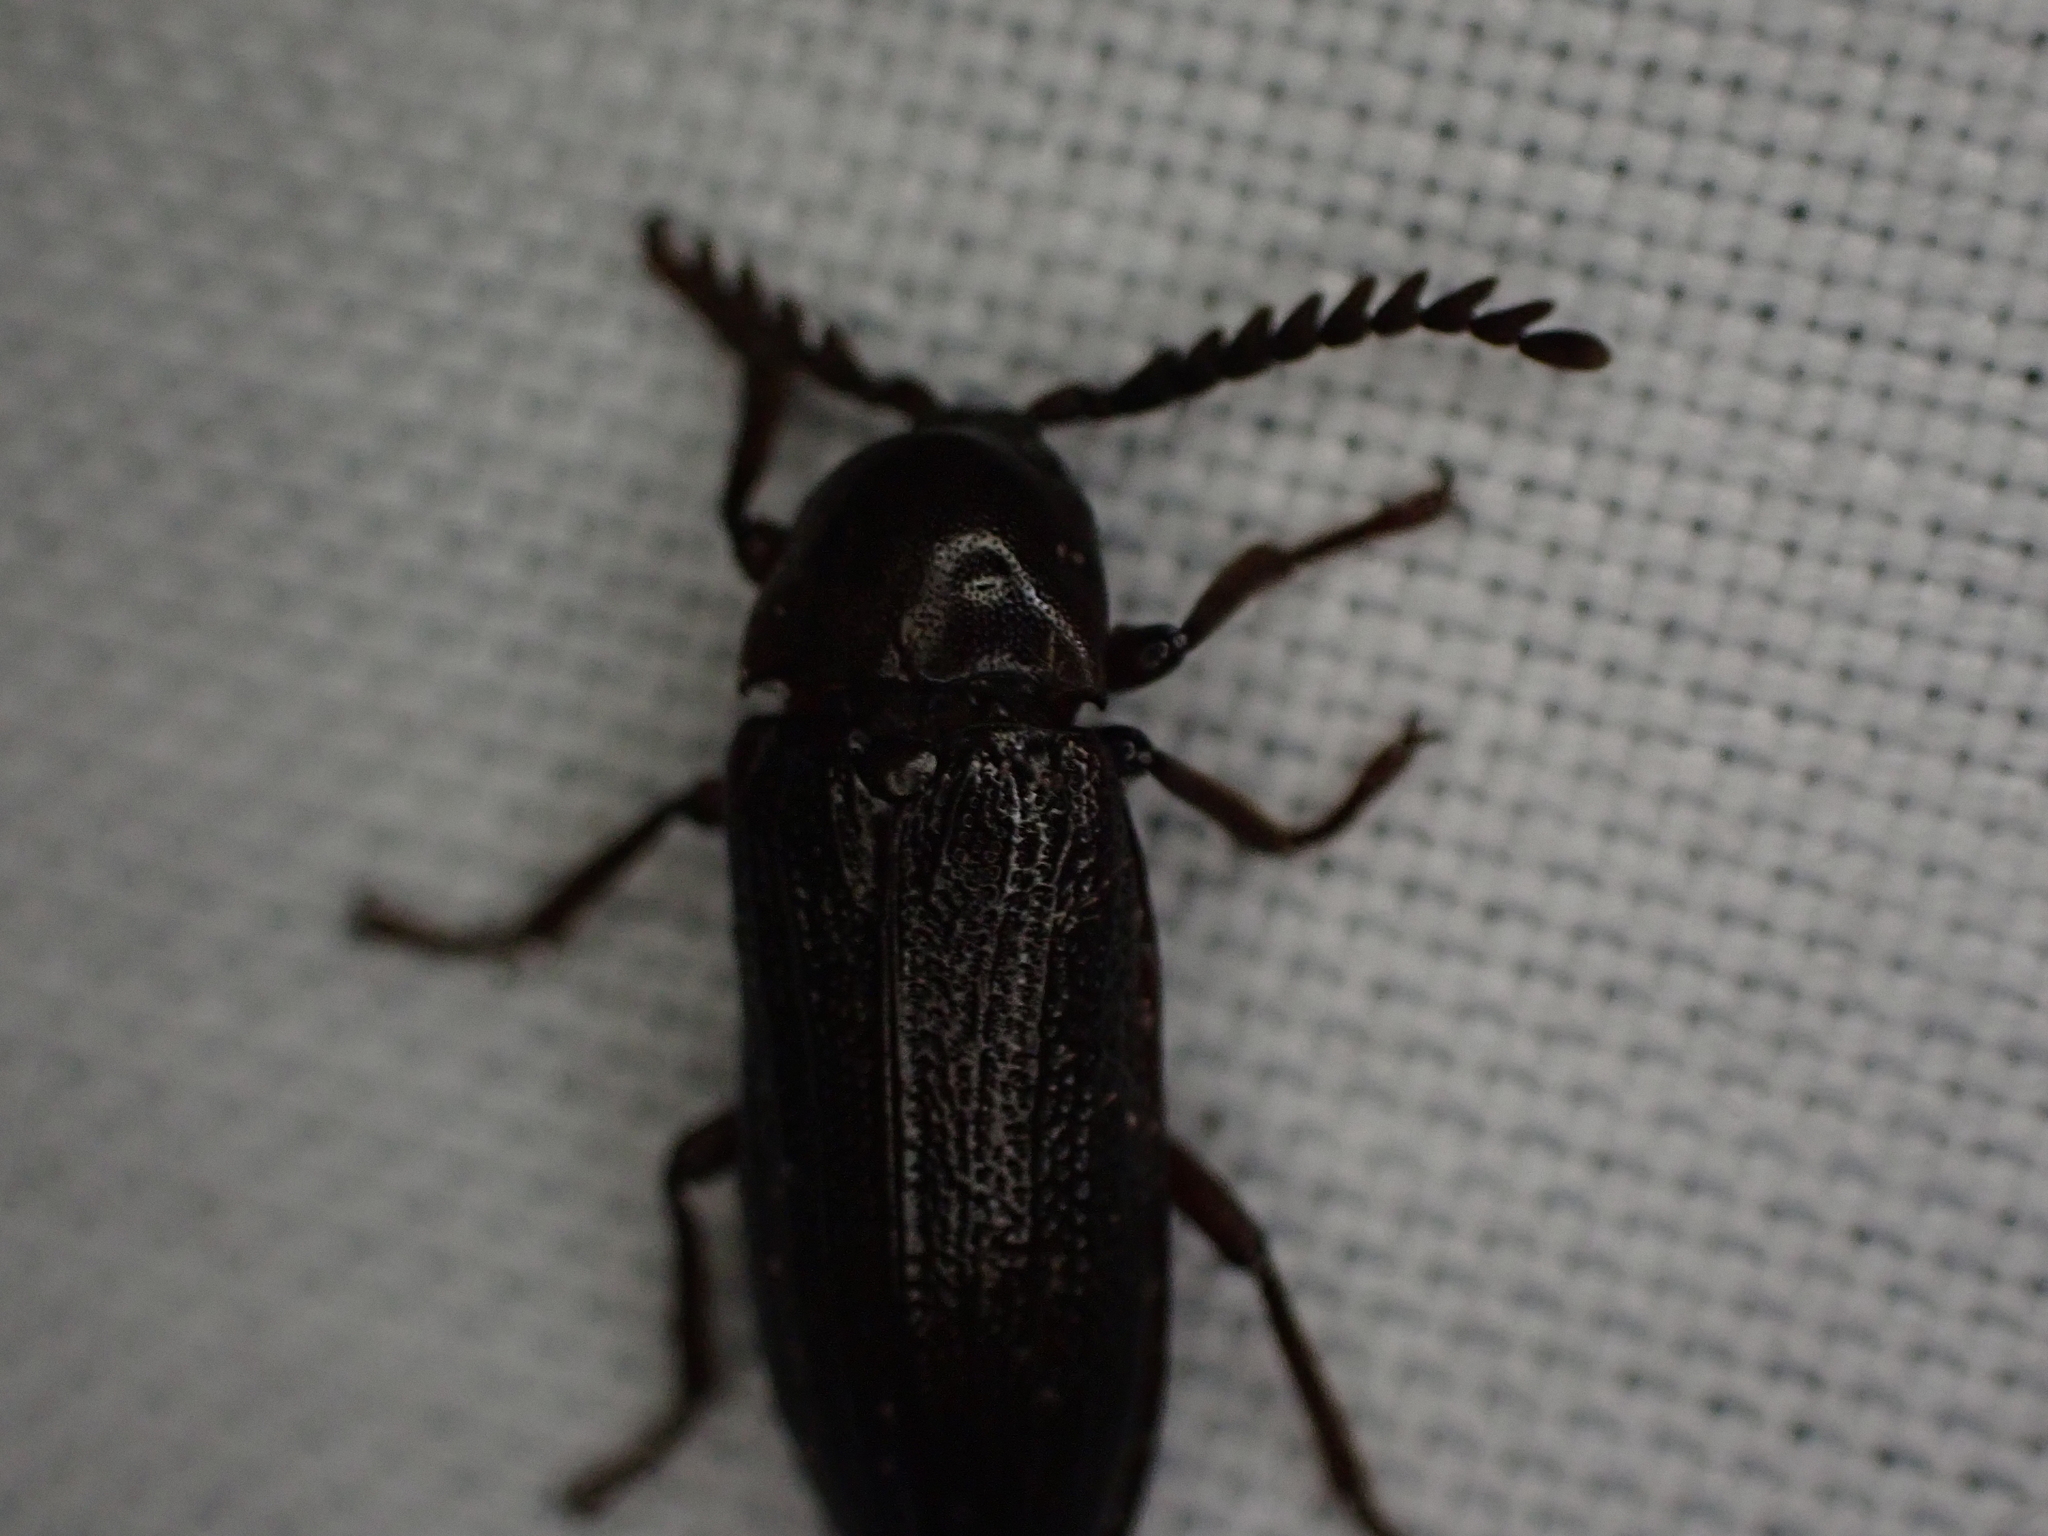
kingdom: Animalia
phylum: Arthropoda
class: Insecta
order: Coleoptera
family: Callirhipidae
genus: Zenoa
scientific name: Zenoa picea
